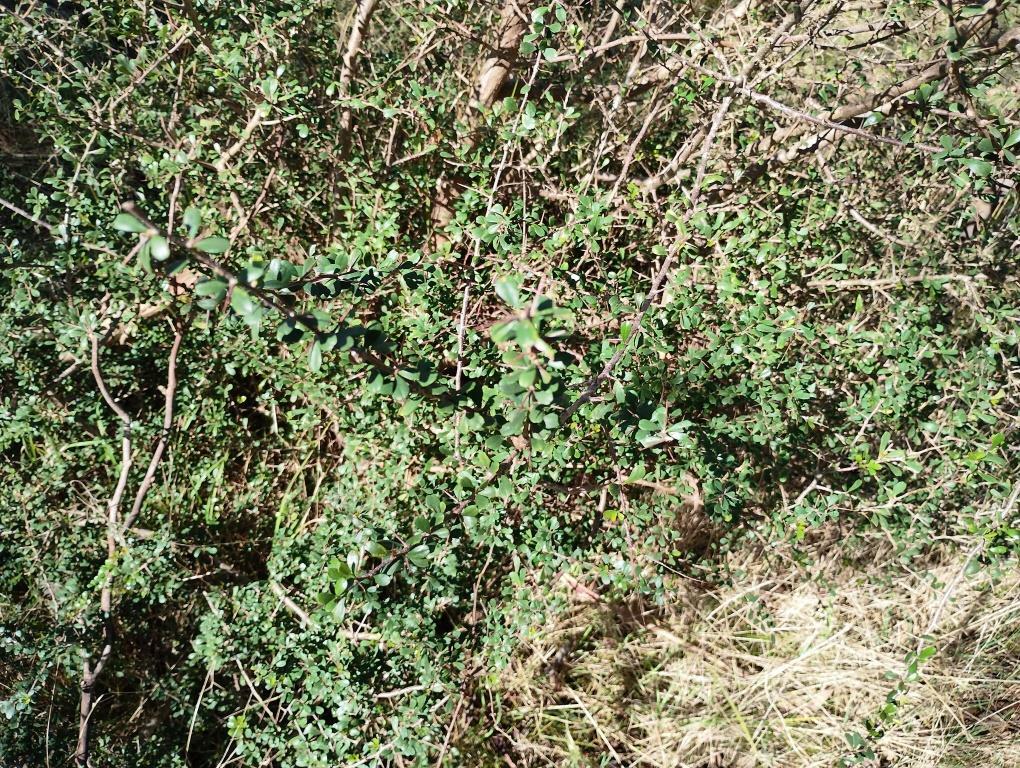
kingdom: Plantae
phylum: Tracheophyta
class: Magnoliopsida
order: Apiales
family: Pittosporaceae
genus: Bursaria
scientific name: Bursaria spinosa
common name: Australian blackthorn
